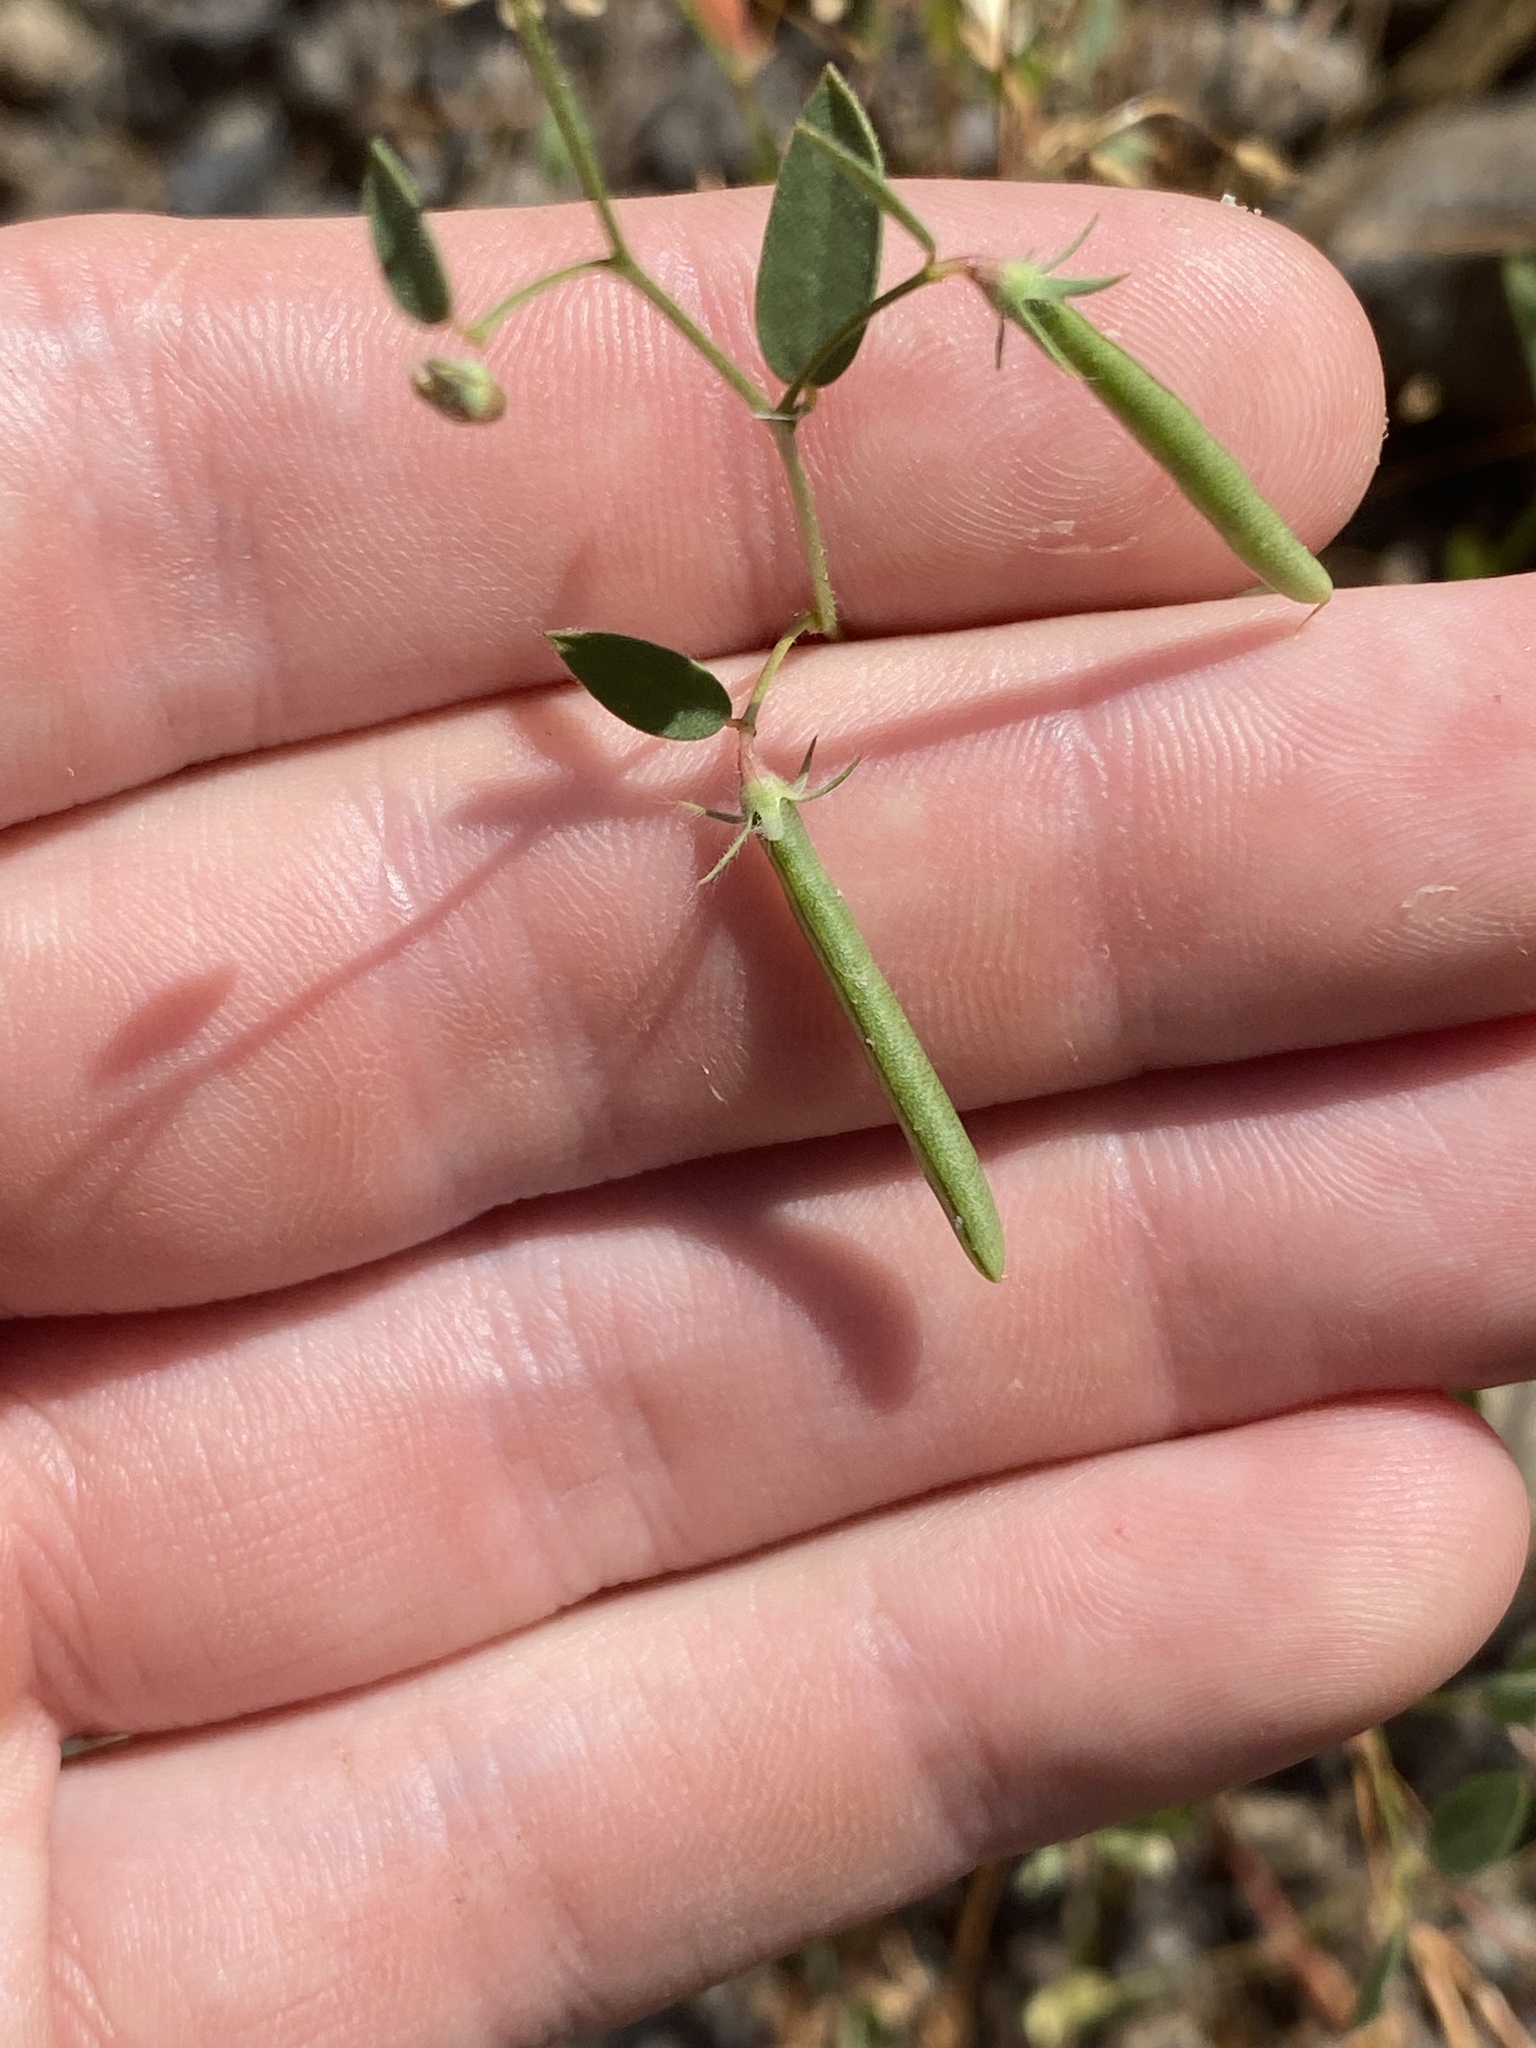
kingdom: Plantae
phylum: Tracheophyta
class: Magnoliopsida
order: Fabales
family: Fabaceae
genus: Acmispon
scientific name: Acmispon americanus
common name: American bird's-foot trefoil
